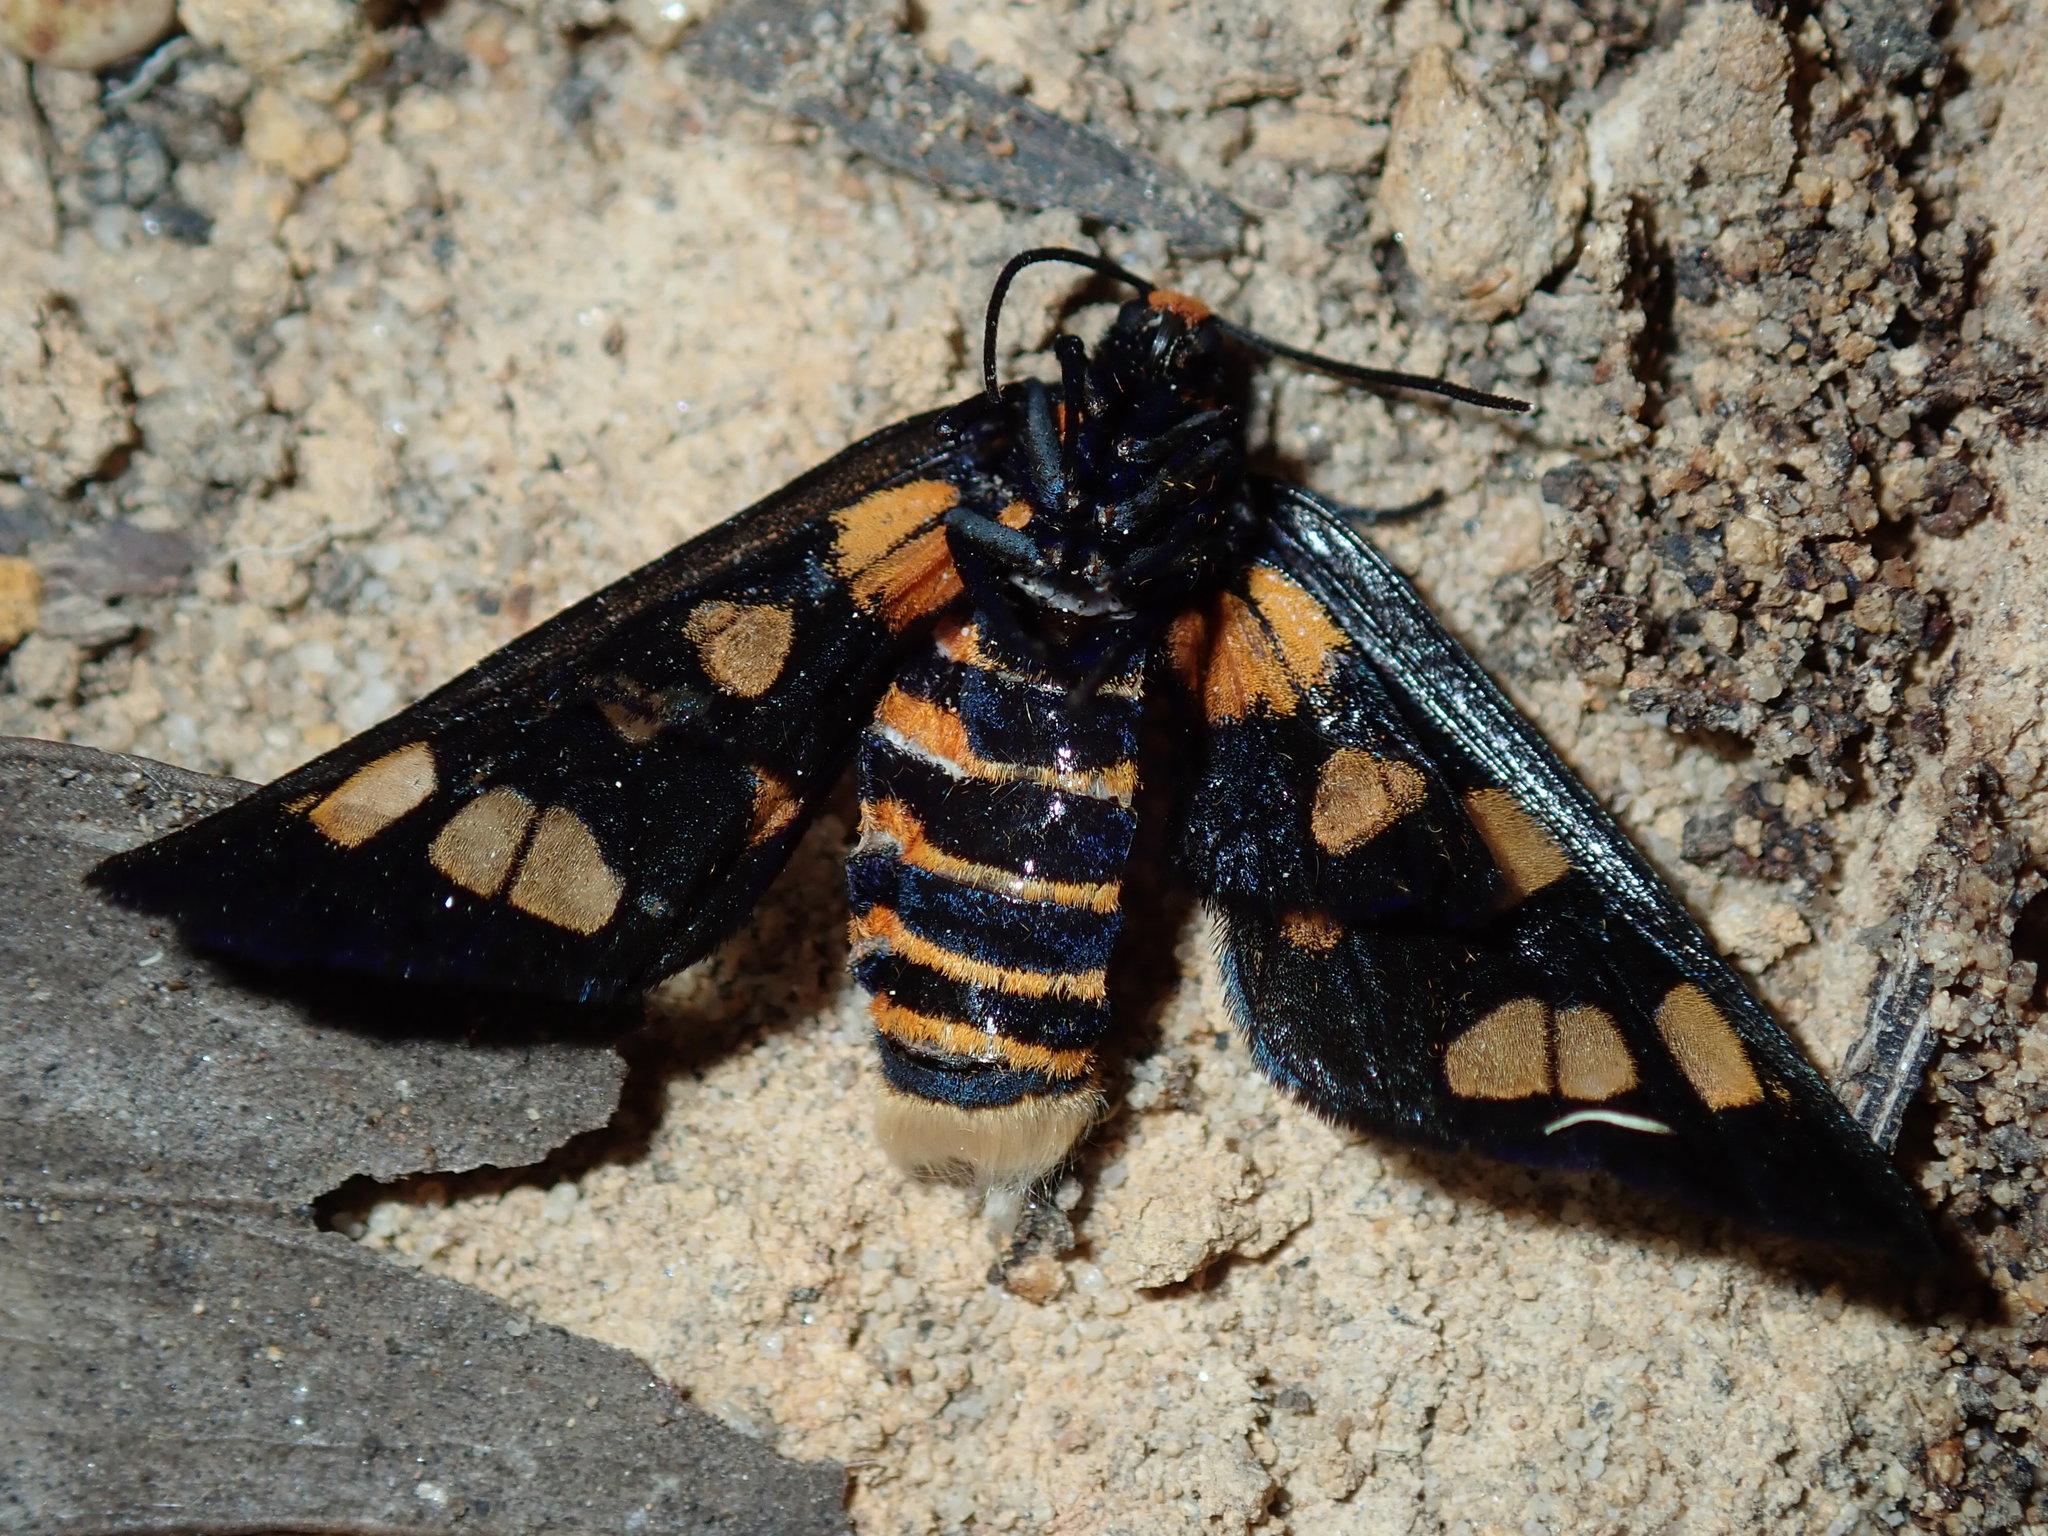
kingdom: Animalia
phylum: Arthropoda
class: Insecta
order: Lepidoptera
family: Erebidae
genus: Amata
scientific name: Amata nigriceps
